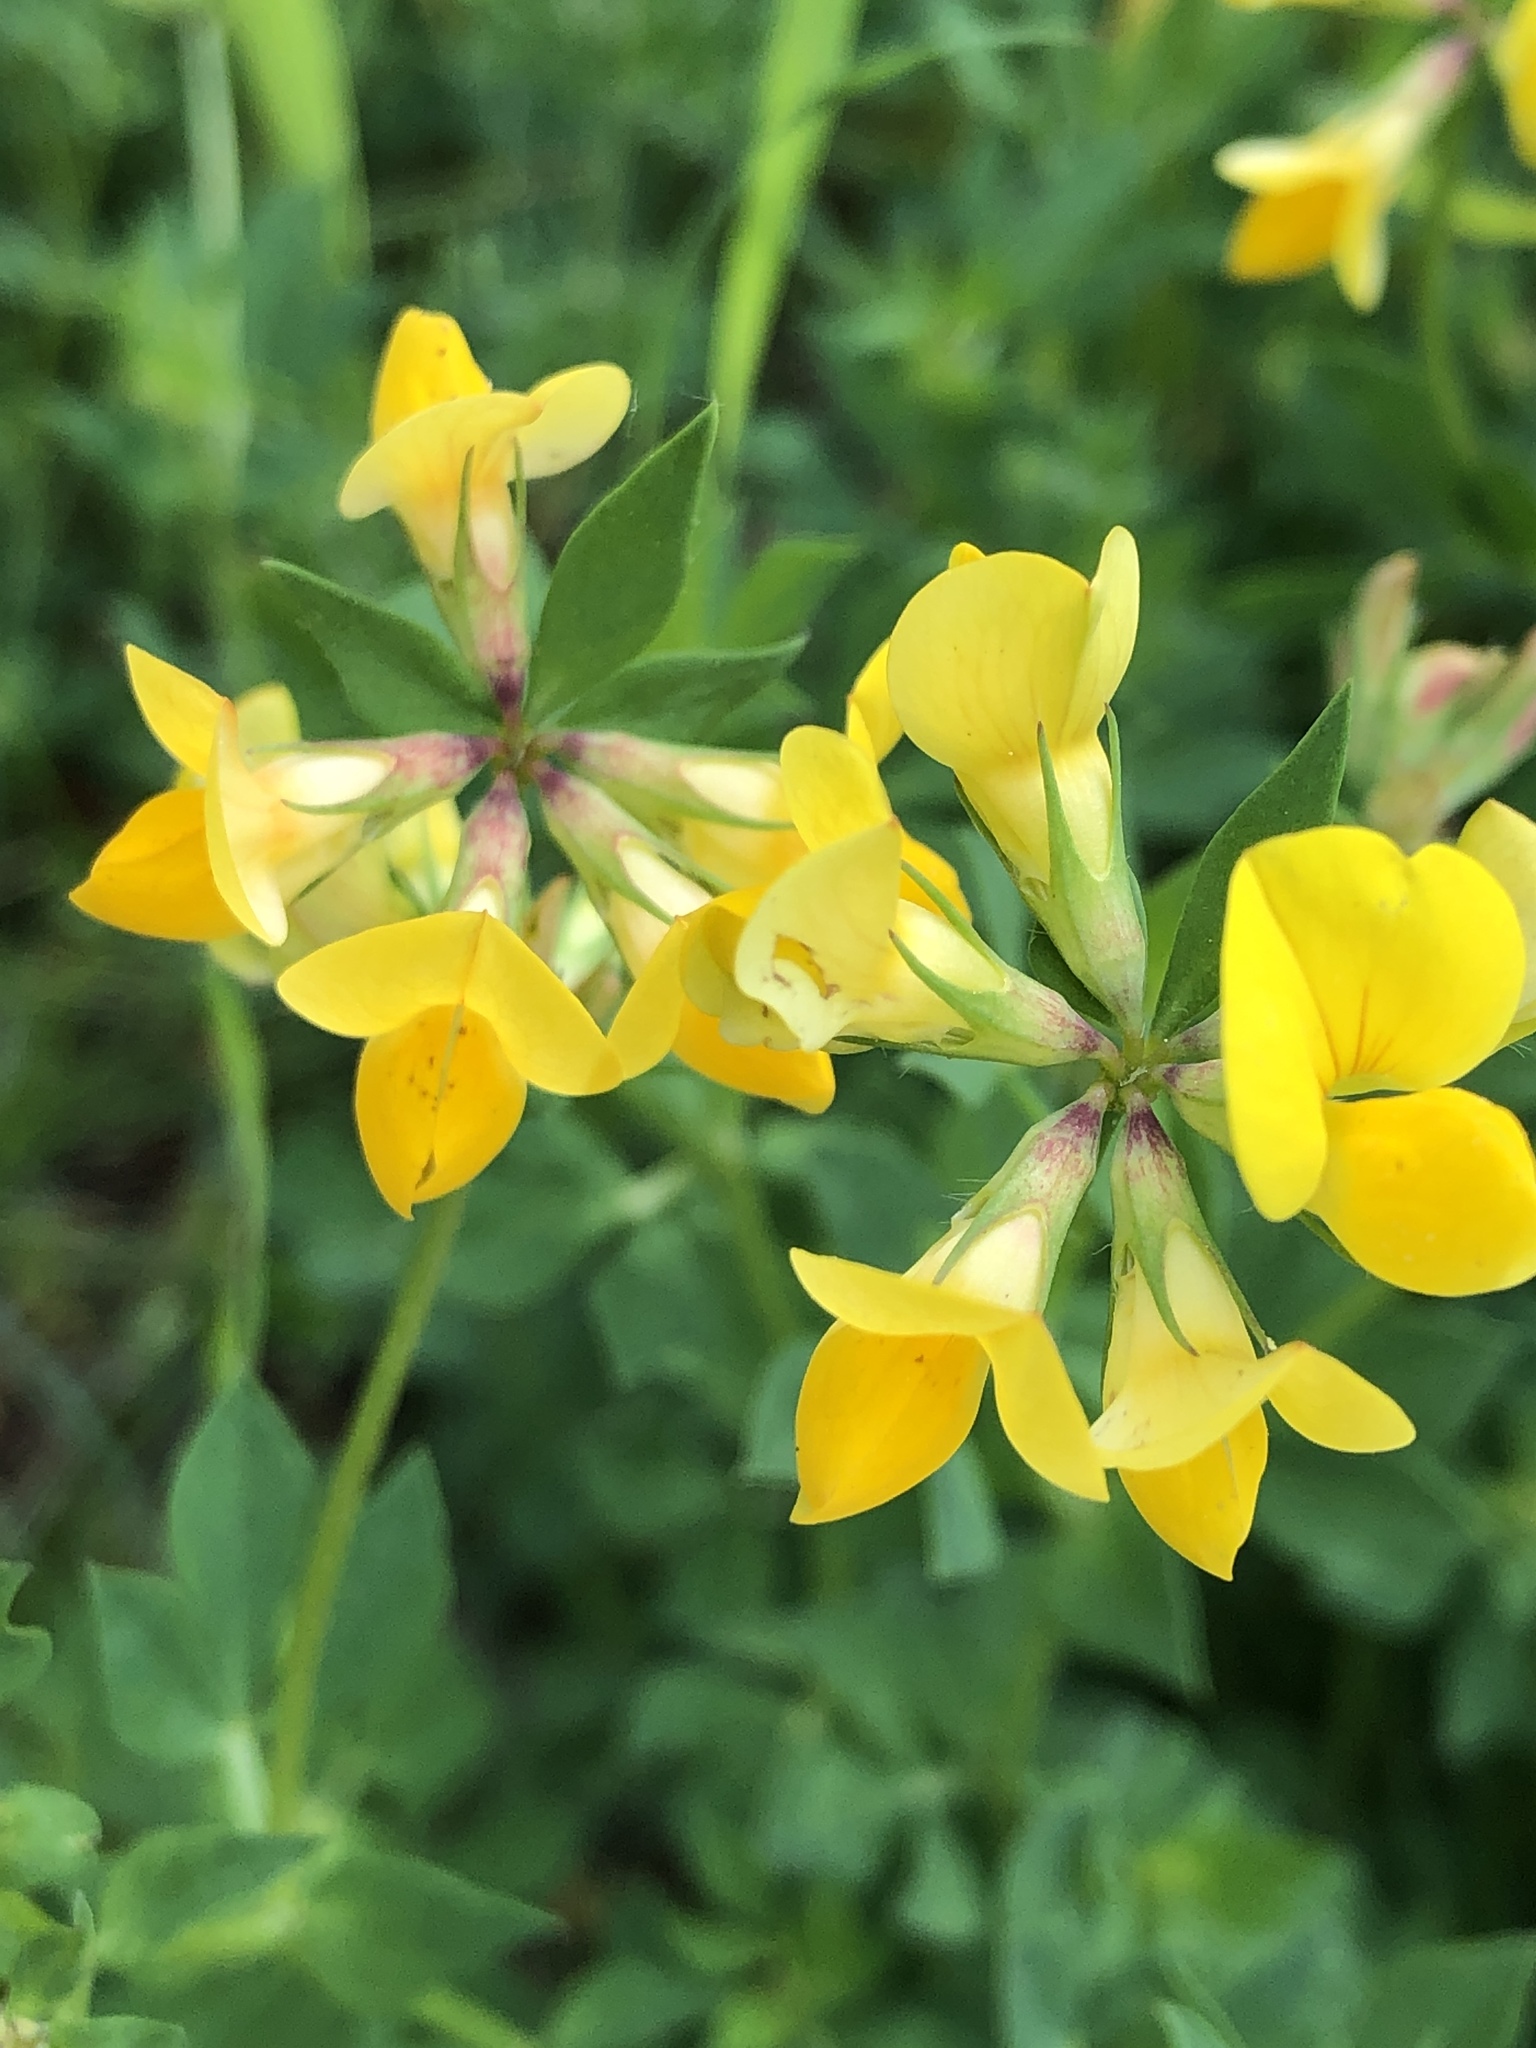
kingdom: Plantae
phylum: Tracheophyta
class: Magnoliopsida
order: Fabales
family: Fabaceae
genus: Lotus
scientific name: Lotus corniculatus
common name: Common bird's-foot-trefoil
